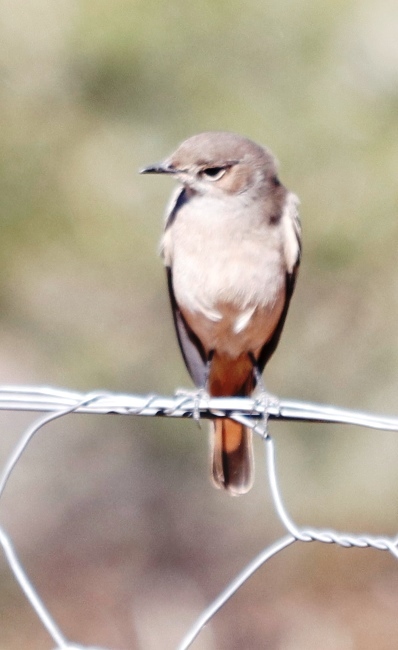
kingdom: Animalia
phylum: Chordata
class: Aves
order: Passeriformes
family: Muscicapidae
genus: Oenanthe
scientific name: Oenanthe familiaris
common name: Familiar chat
